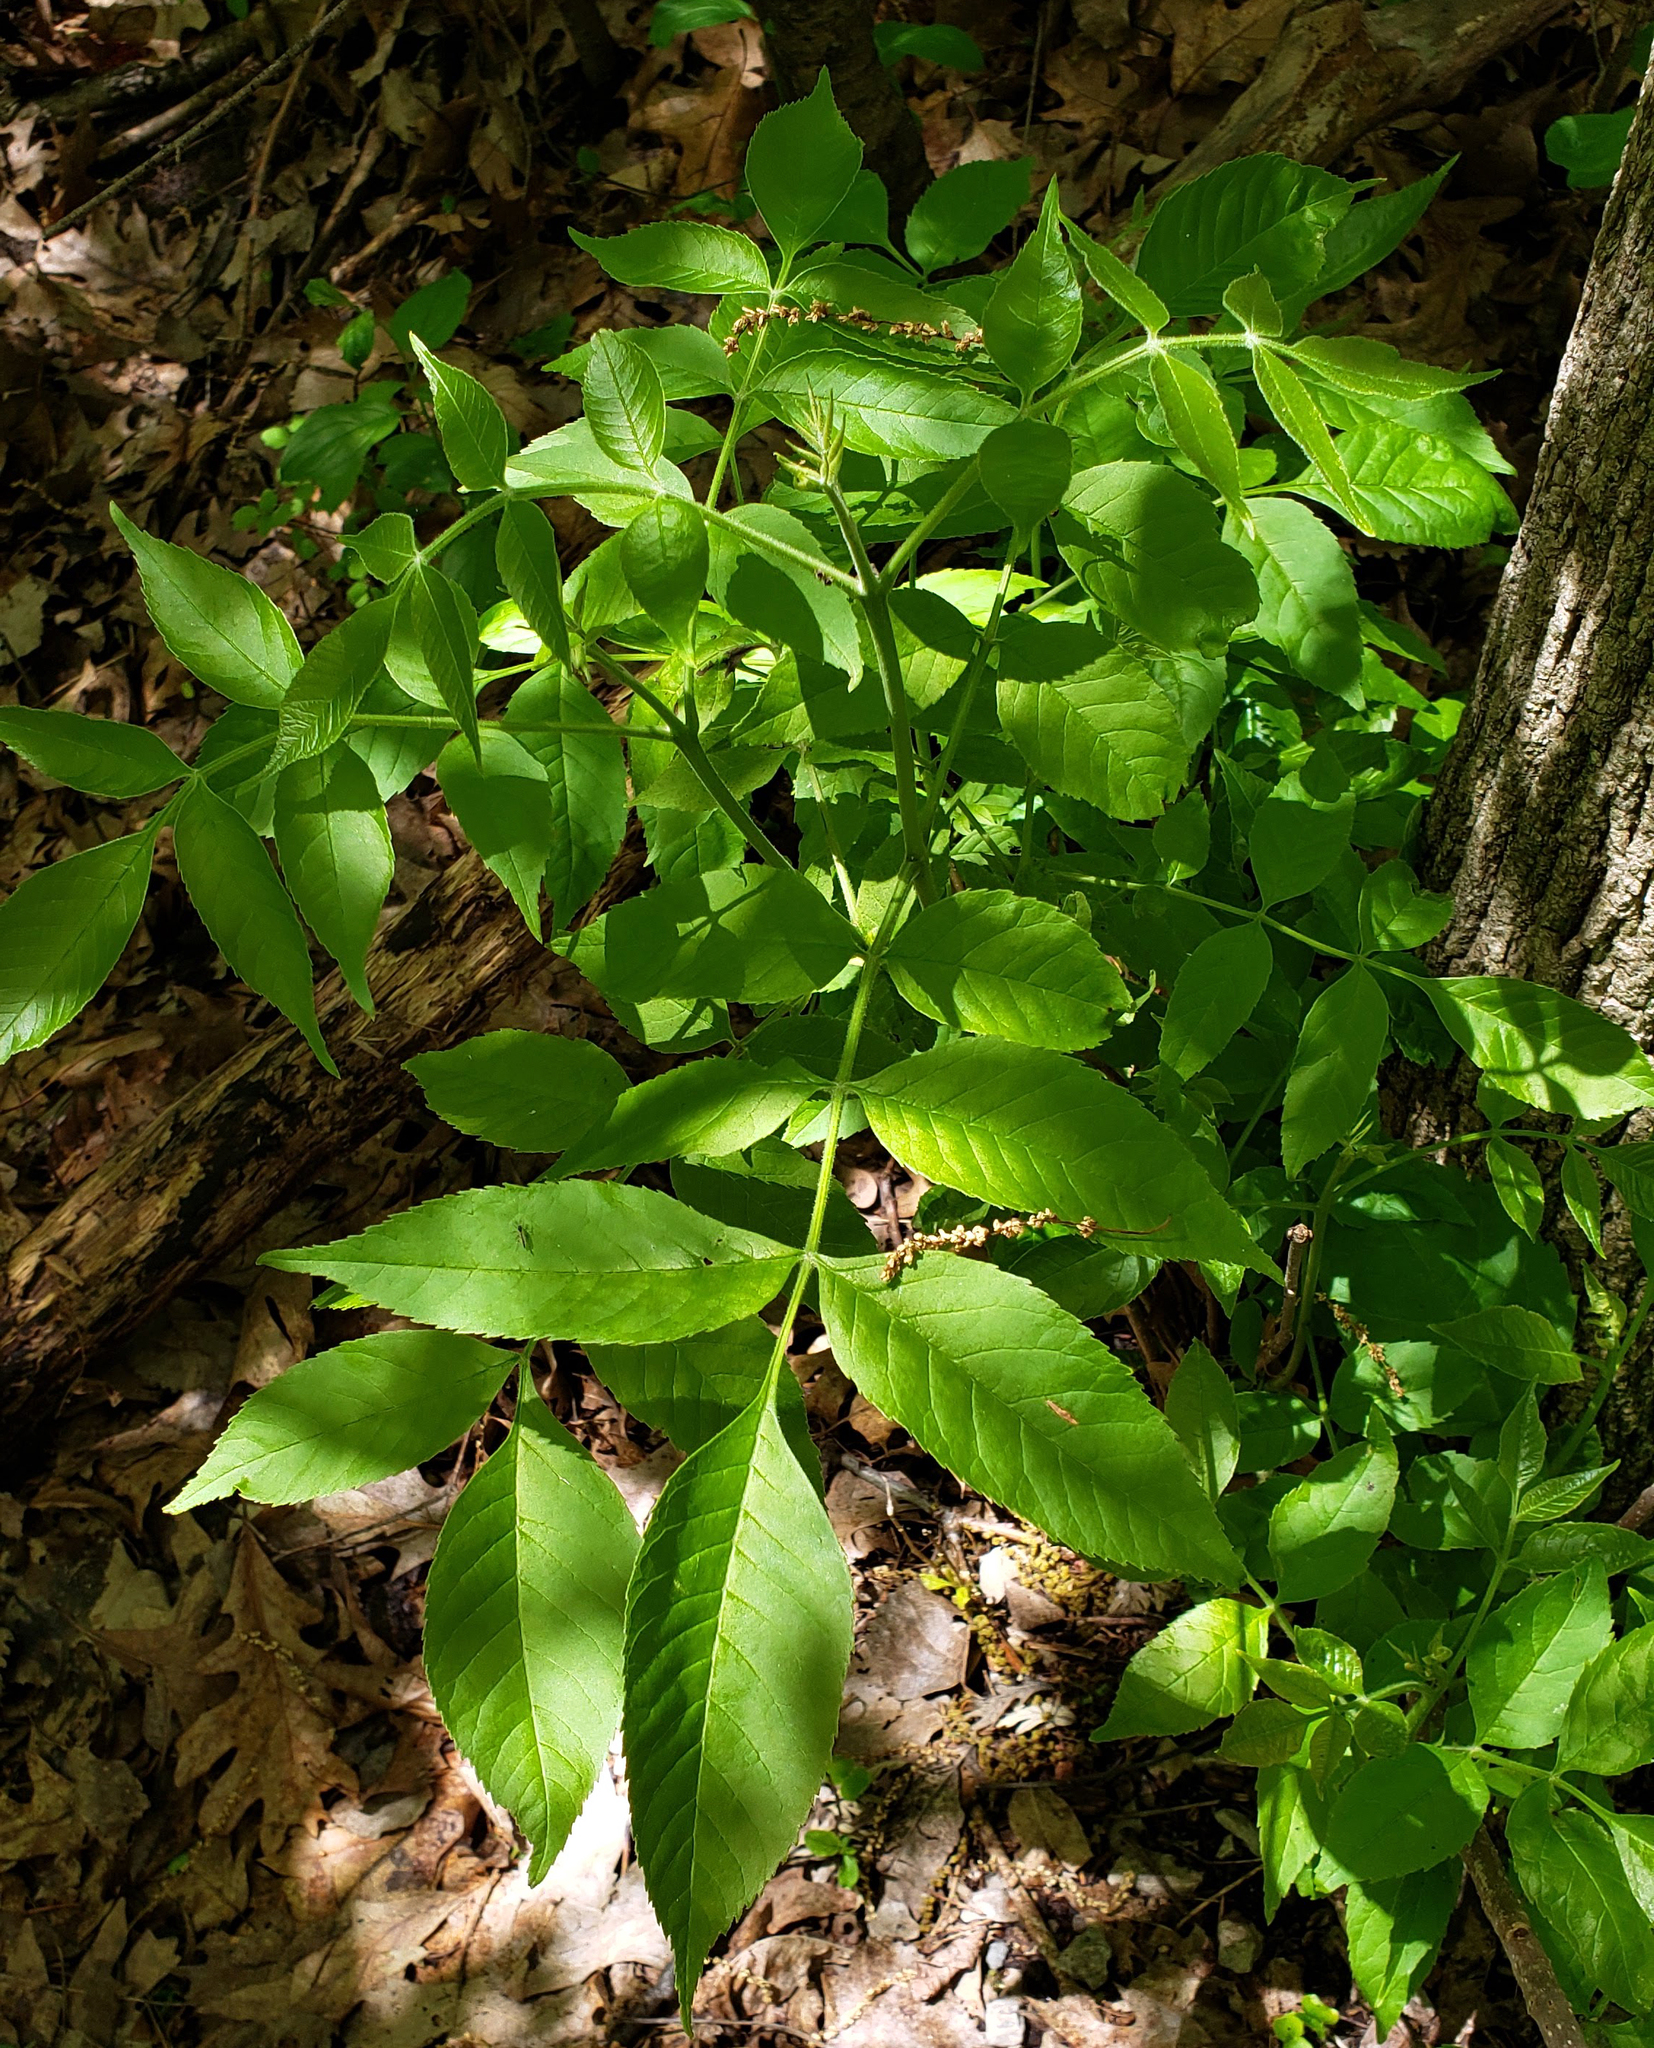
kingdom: Plantae
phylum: Tracheophyta
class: Magnoliopsida
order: Lamiales
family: Oleaceae
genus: Fraxinus
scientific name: Fraxinus pennsylvanica
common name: Green ash
